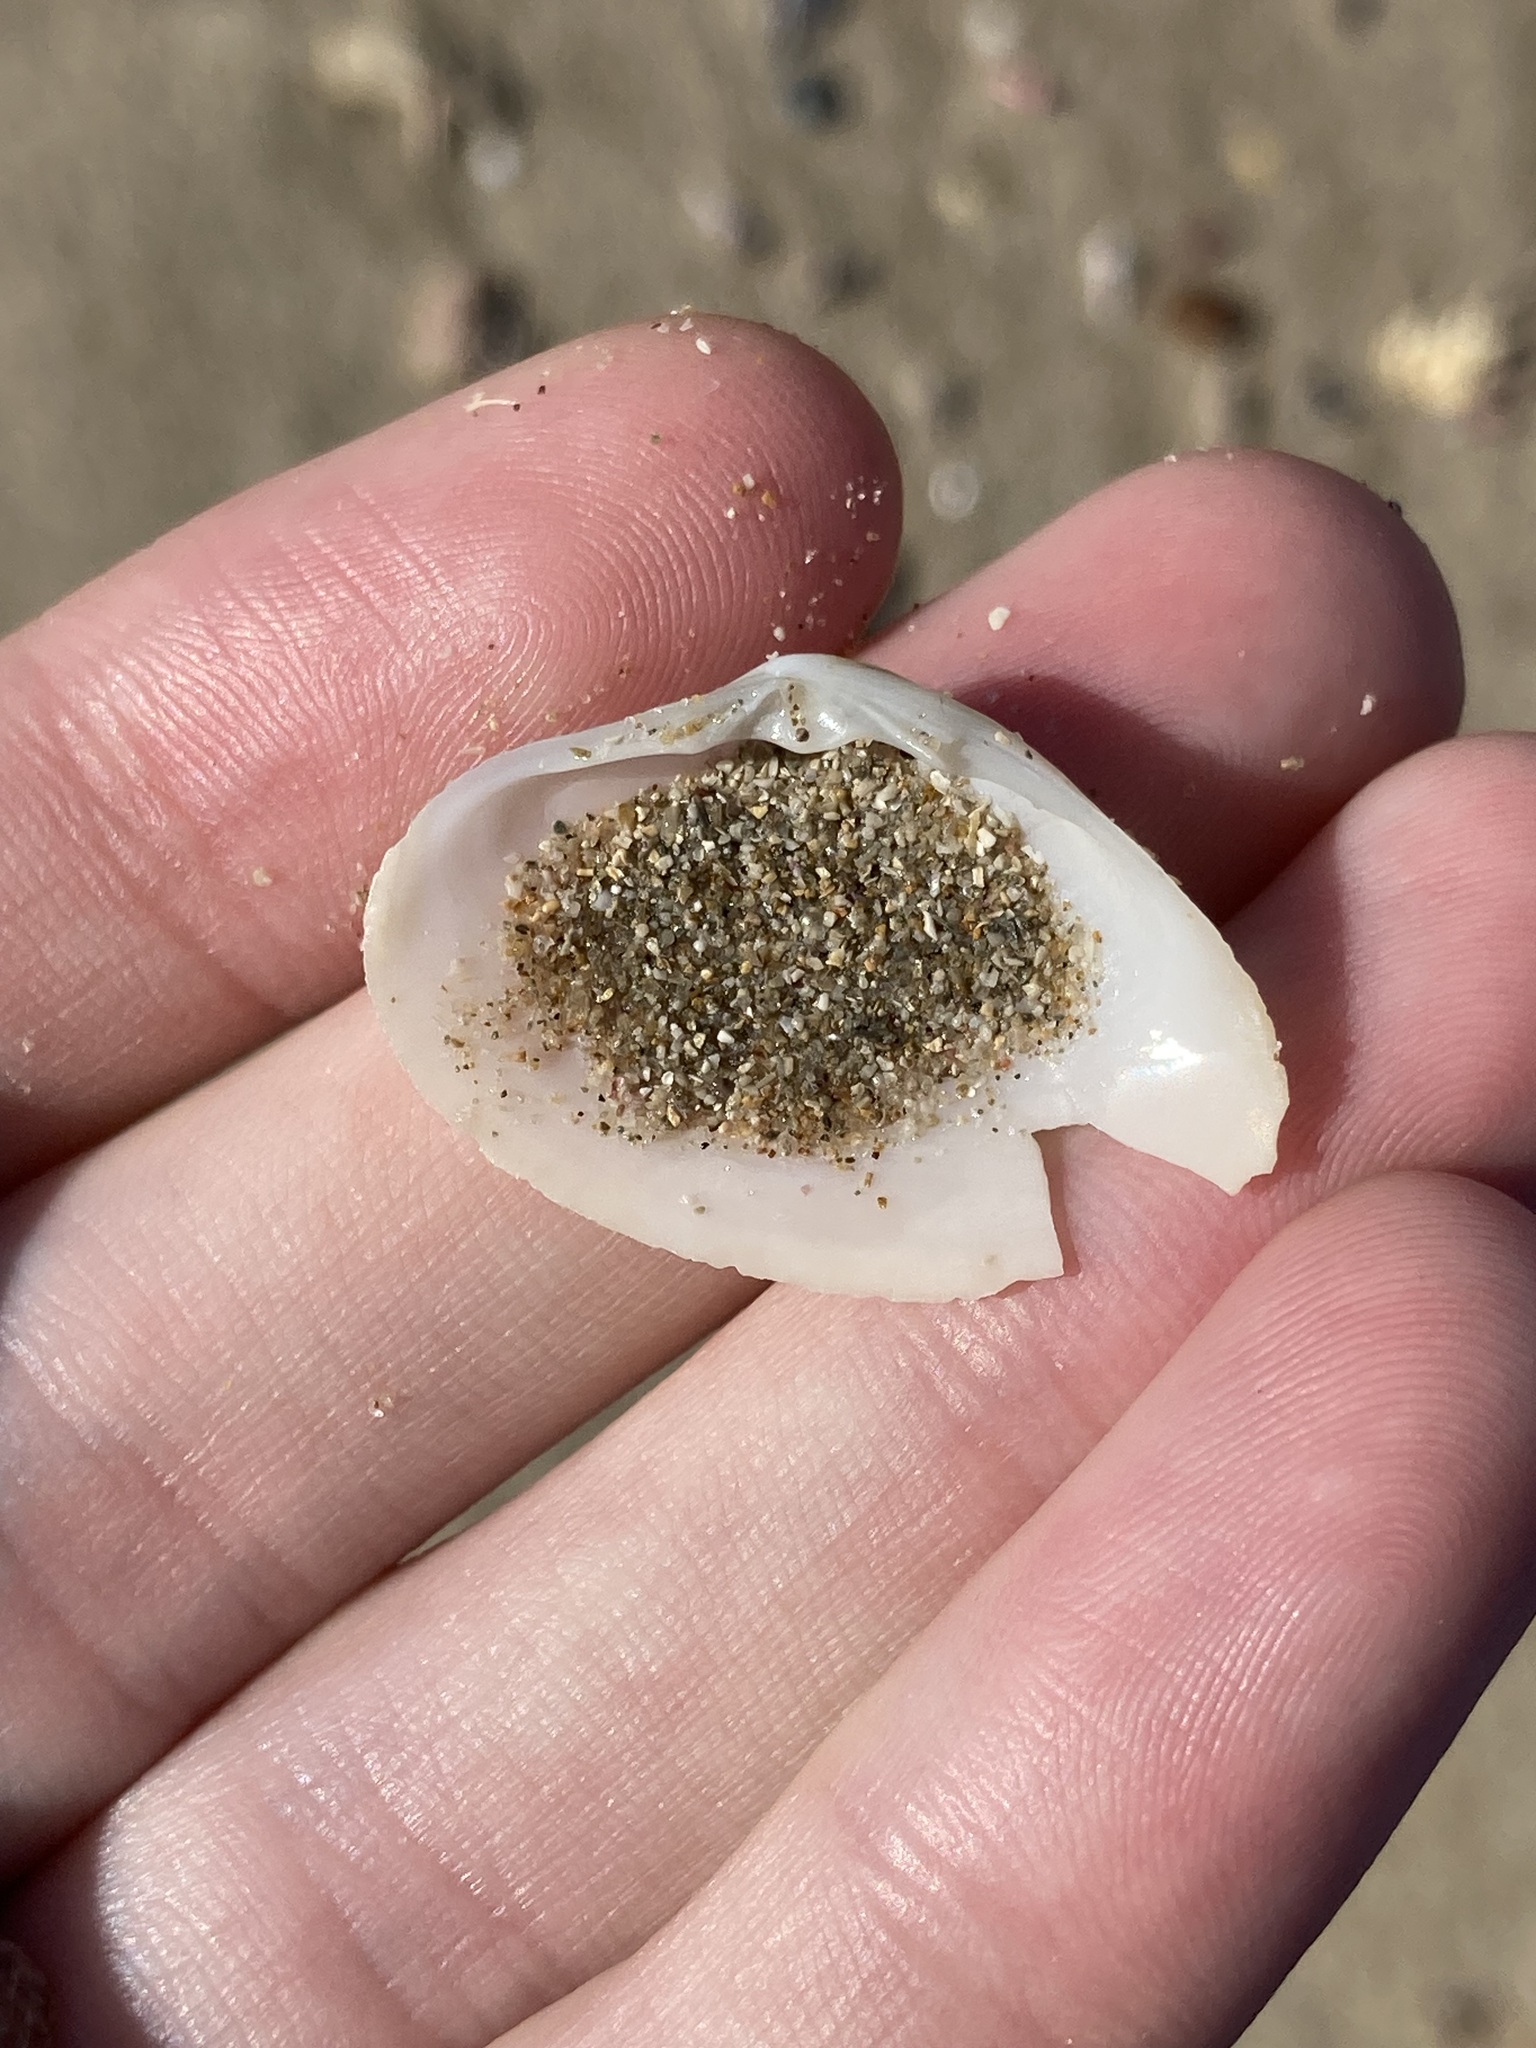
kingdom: Animalia
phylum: Mollusca
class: Bivalvia
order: Venerida
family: Mactridae
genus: Mactrotoma
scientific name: Mactrotoma antecedens
